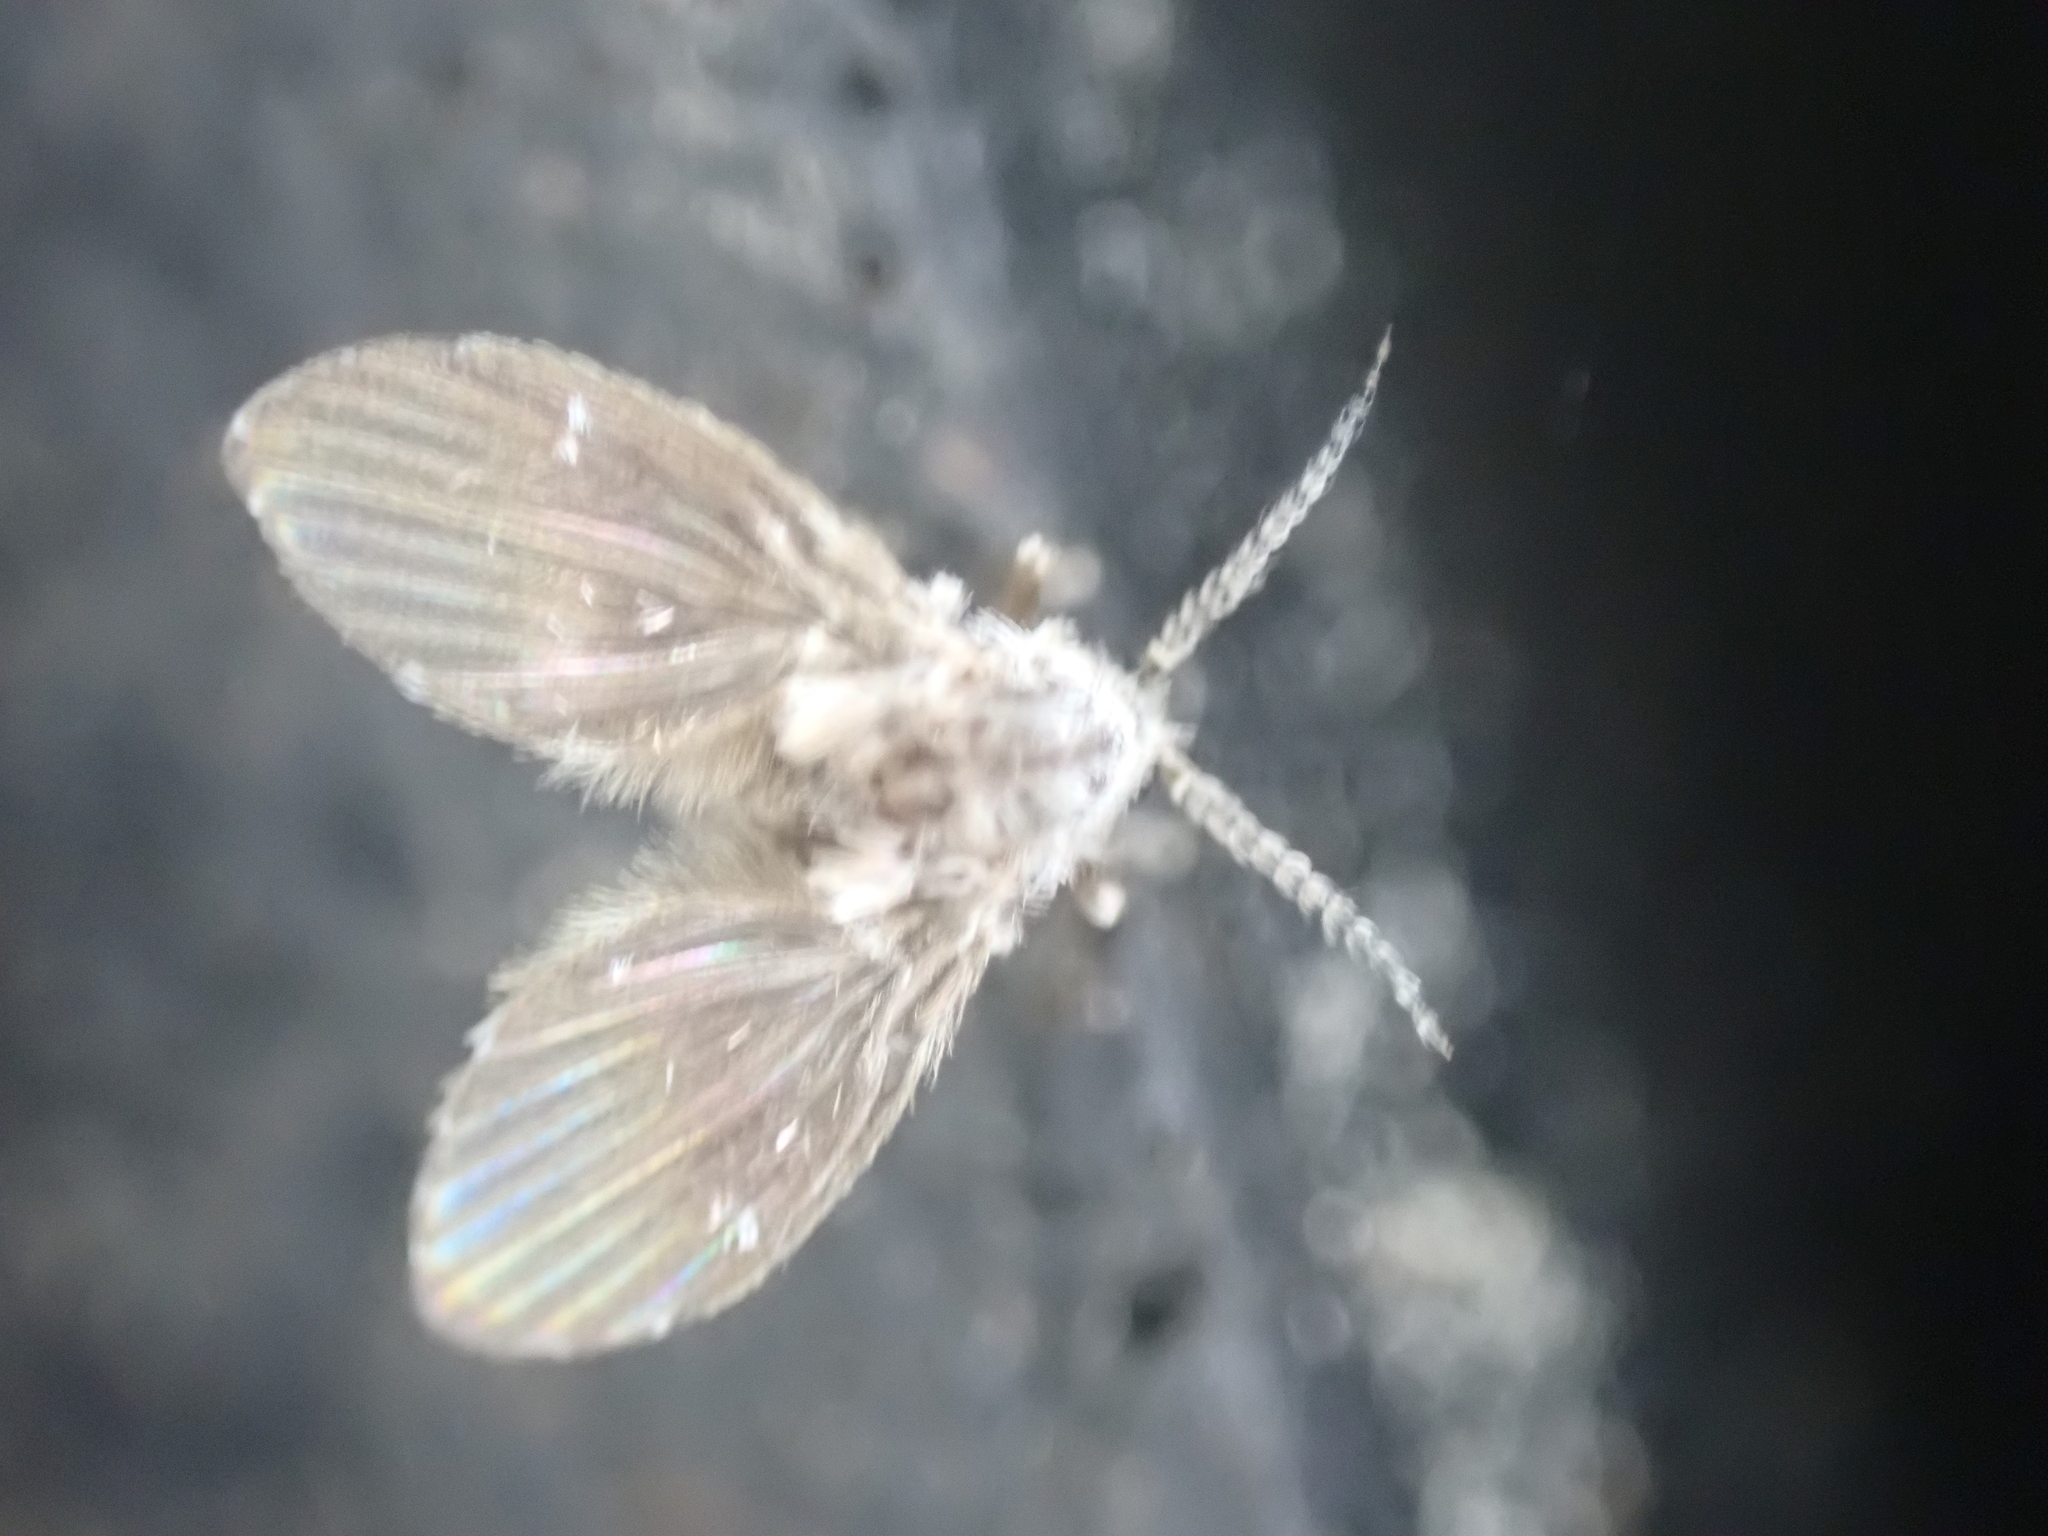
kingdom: Animalia
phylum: Arthropoda
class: Insecta
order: Diptera
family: Psychodidae
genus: Clogmia
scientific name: Clogmia albipunctatus
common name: White-spotted moth fly
